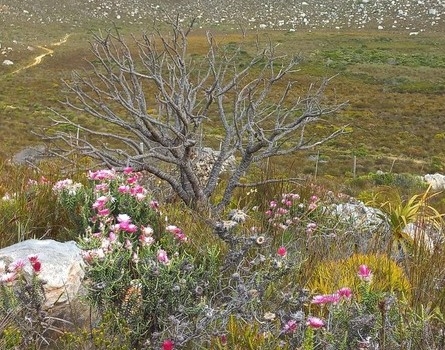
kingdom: Plantae
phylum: Tracheophyta
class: Magnoliopsida
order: Asterales
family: Asteraceae
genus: Phaenocoma
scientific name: Phaenocoma prolifera
